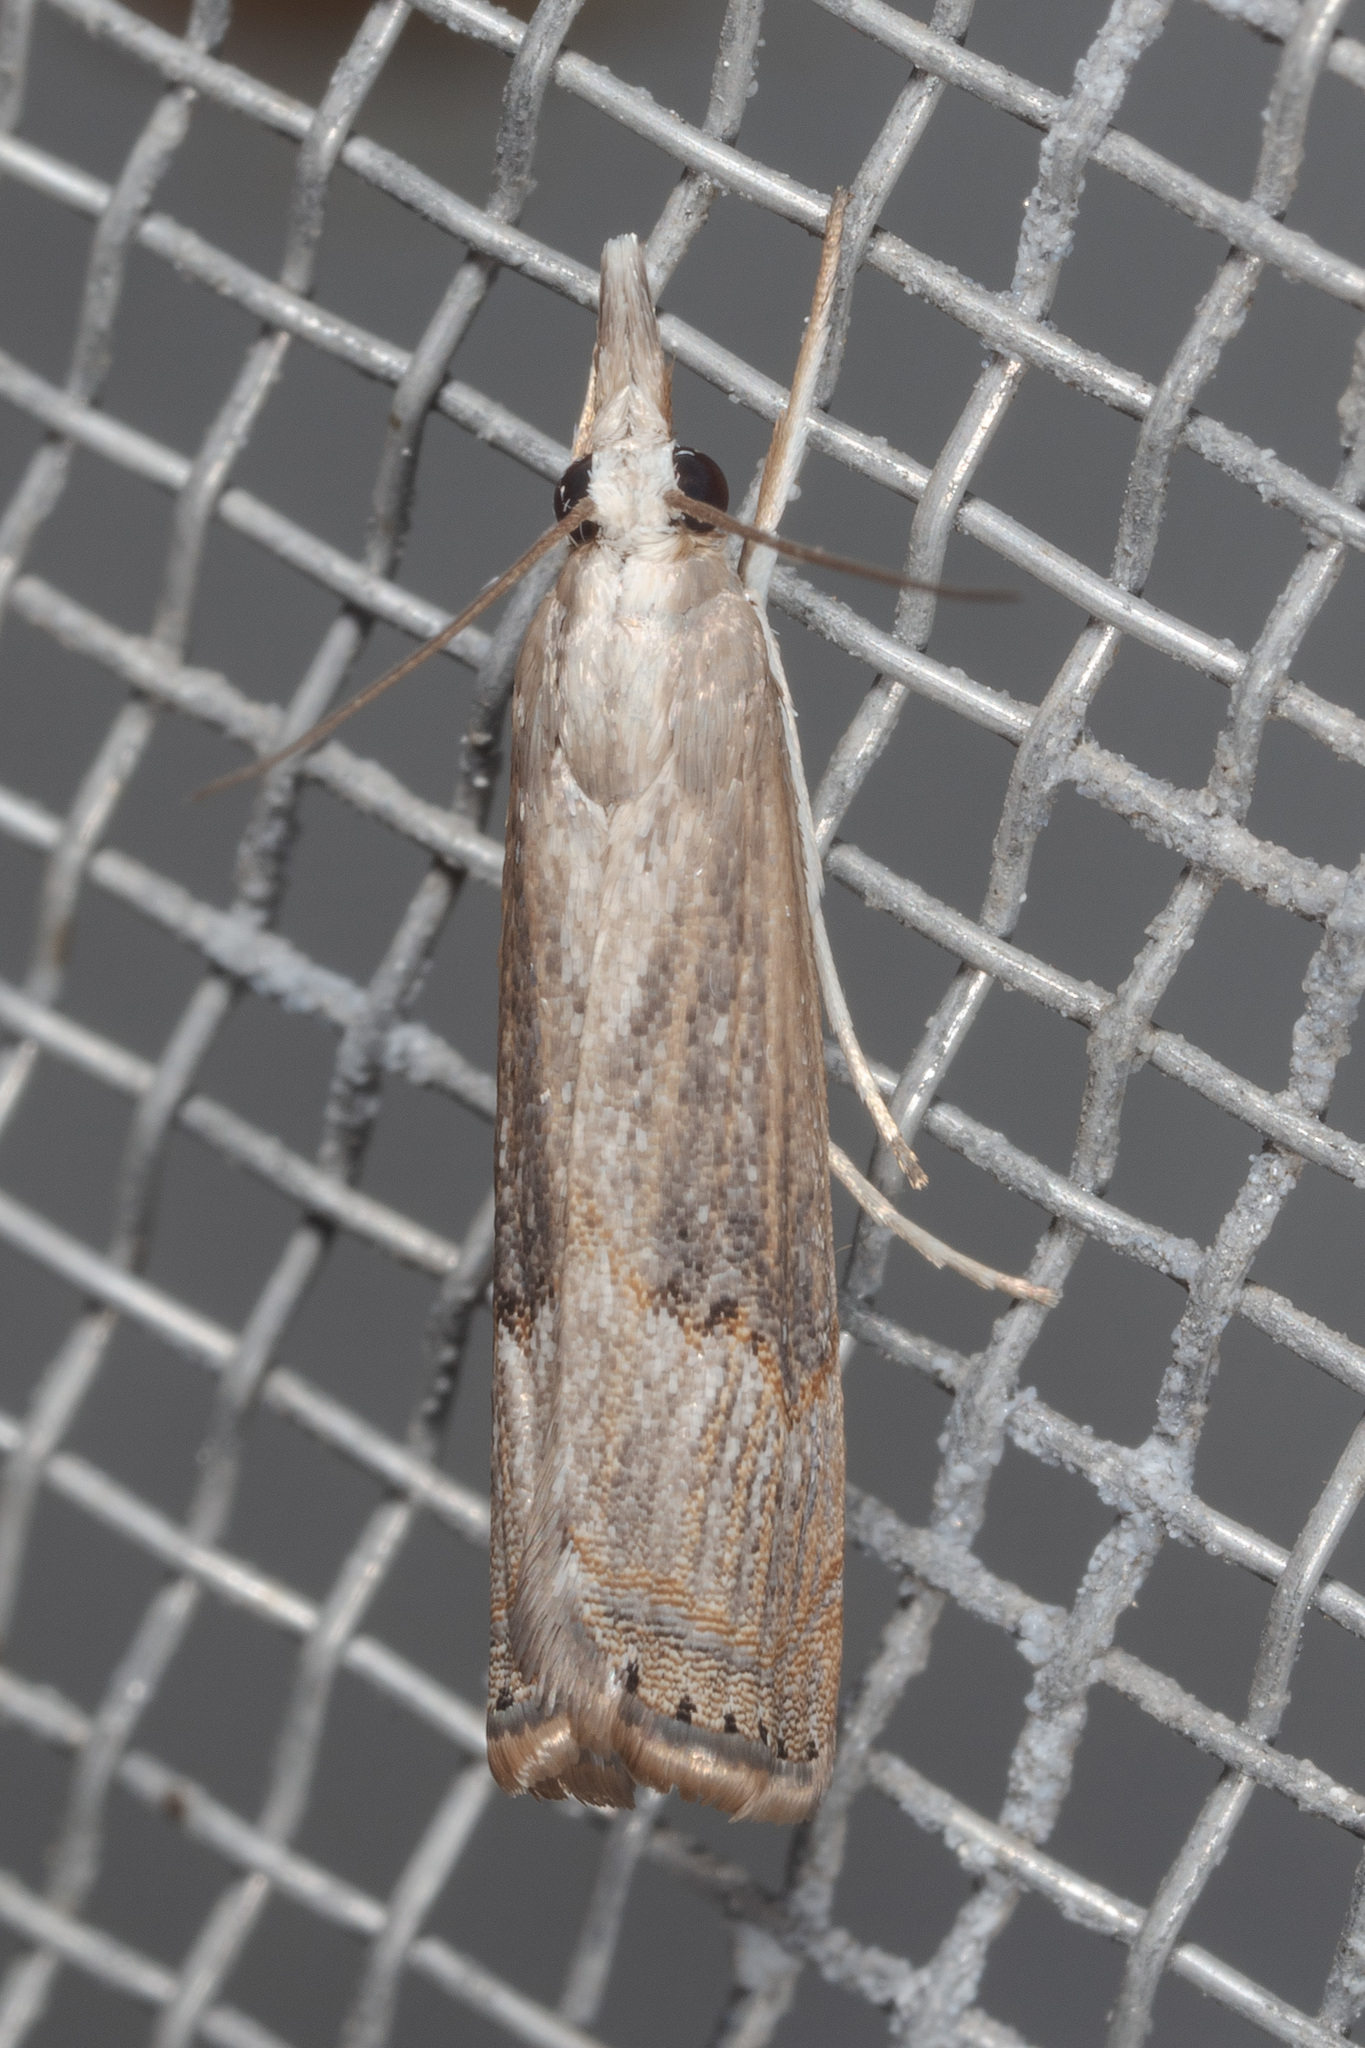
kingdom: Animalia
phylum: Arthropoda
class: Insecta
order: Lepidoptera
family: Crambidae
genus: Parapediasia
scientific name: Parapediasia teterellus
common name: Bluegrass webworm moth
